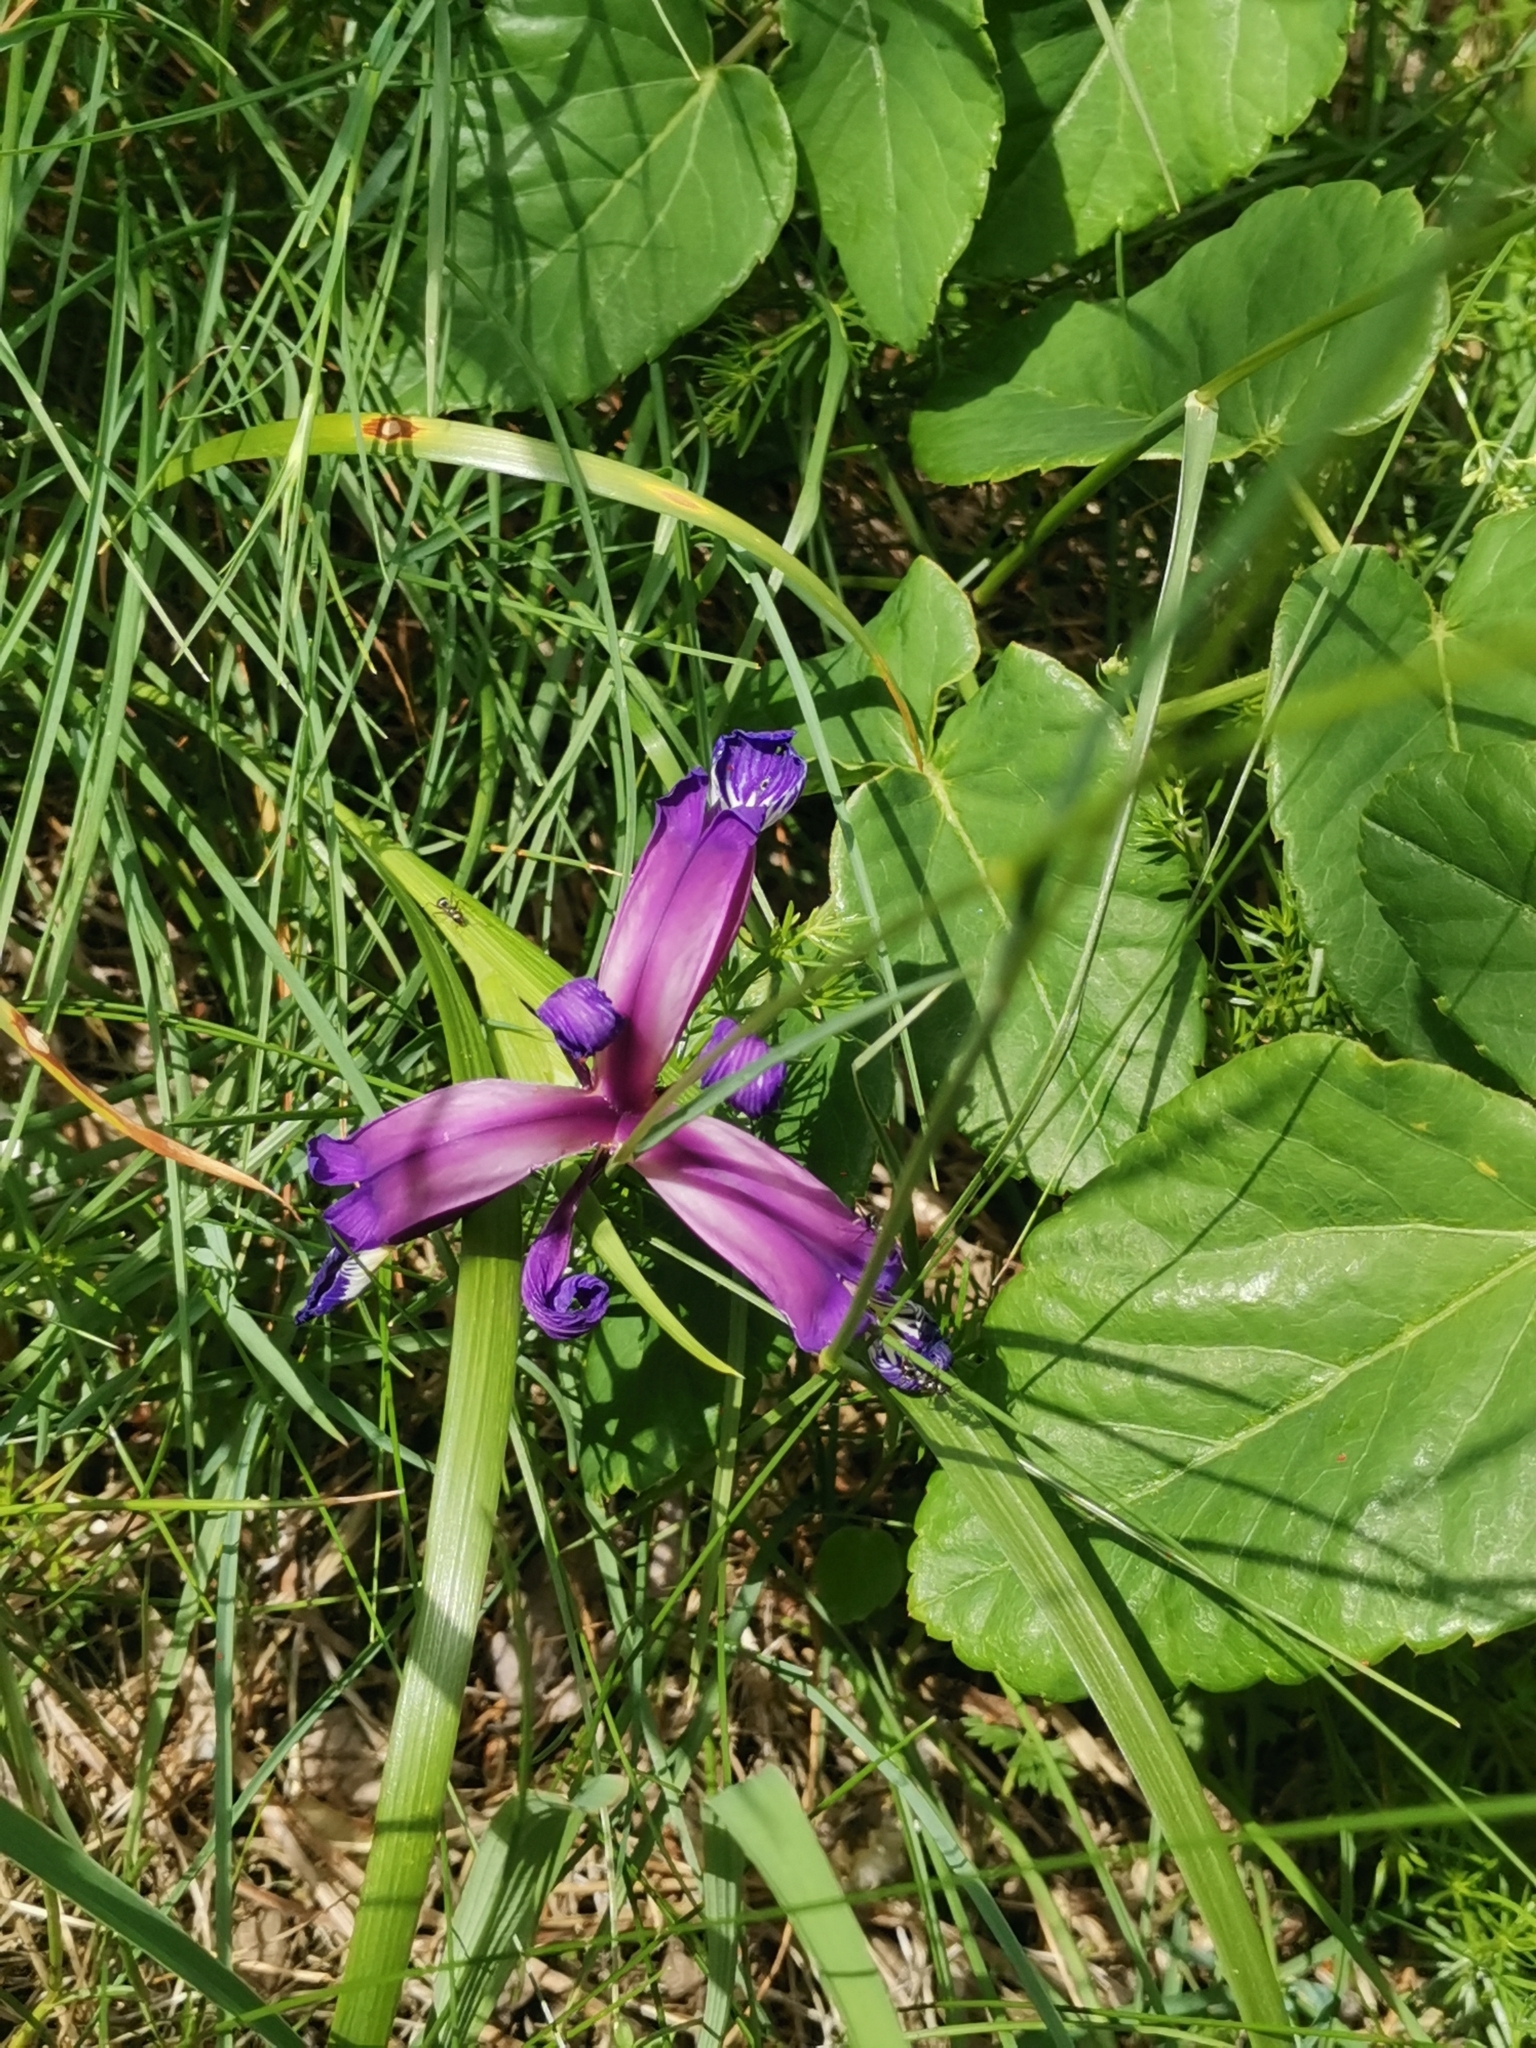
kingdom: Plantae
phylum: Tracheophyta
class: Liliopsida
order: Asparagales
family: Iridaceae
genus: Iris
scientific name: Iris graminea
